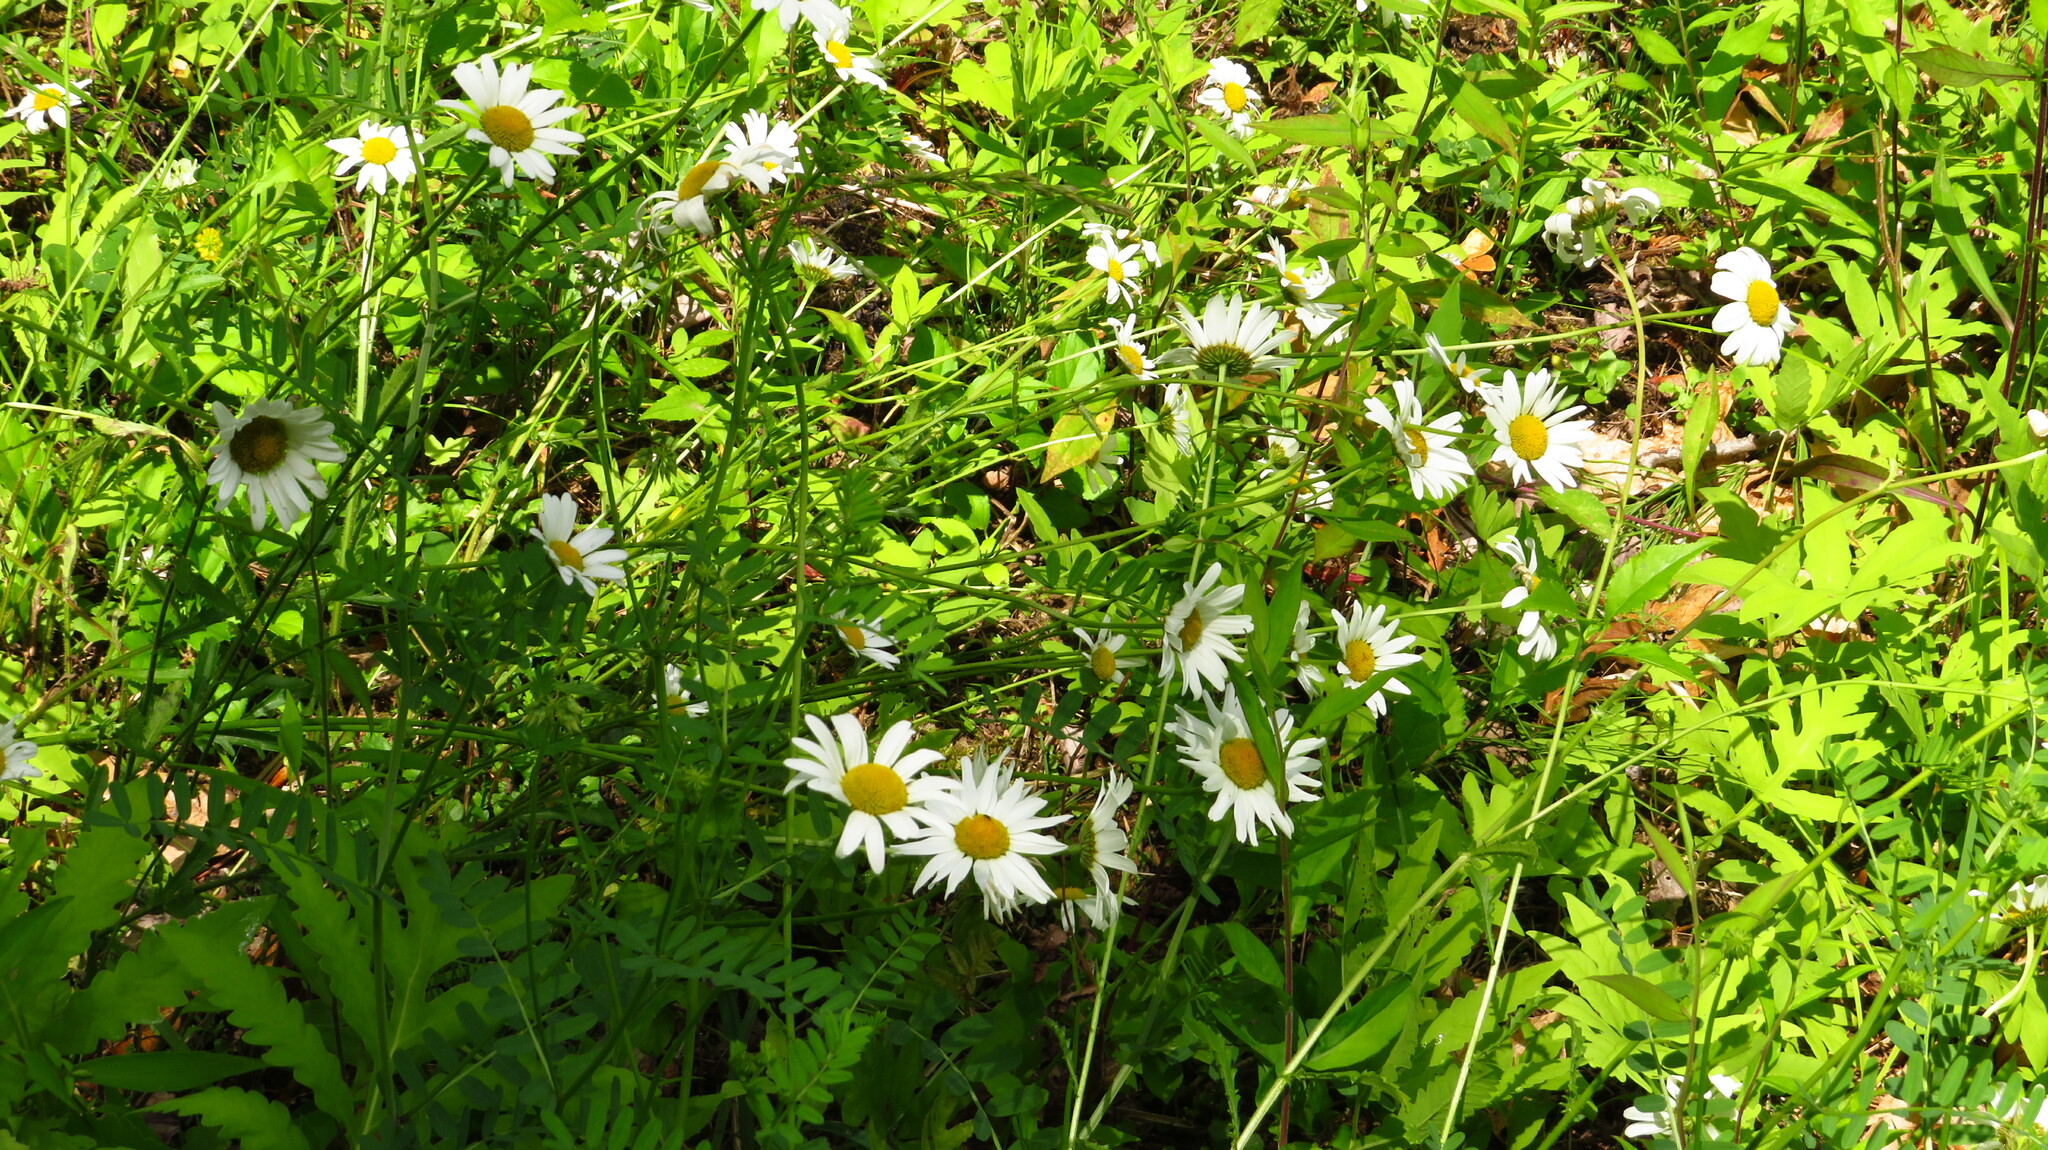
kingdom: Plantae
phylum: Tracheophyta
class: Magnoliopsida
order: Asterales
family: Asteraceae
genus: Leucanthemum
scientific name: Leucanthemum vulgare
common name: Oxeye daisy
